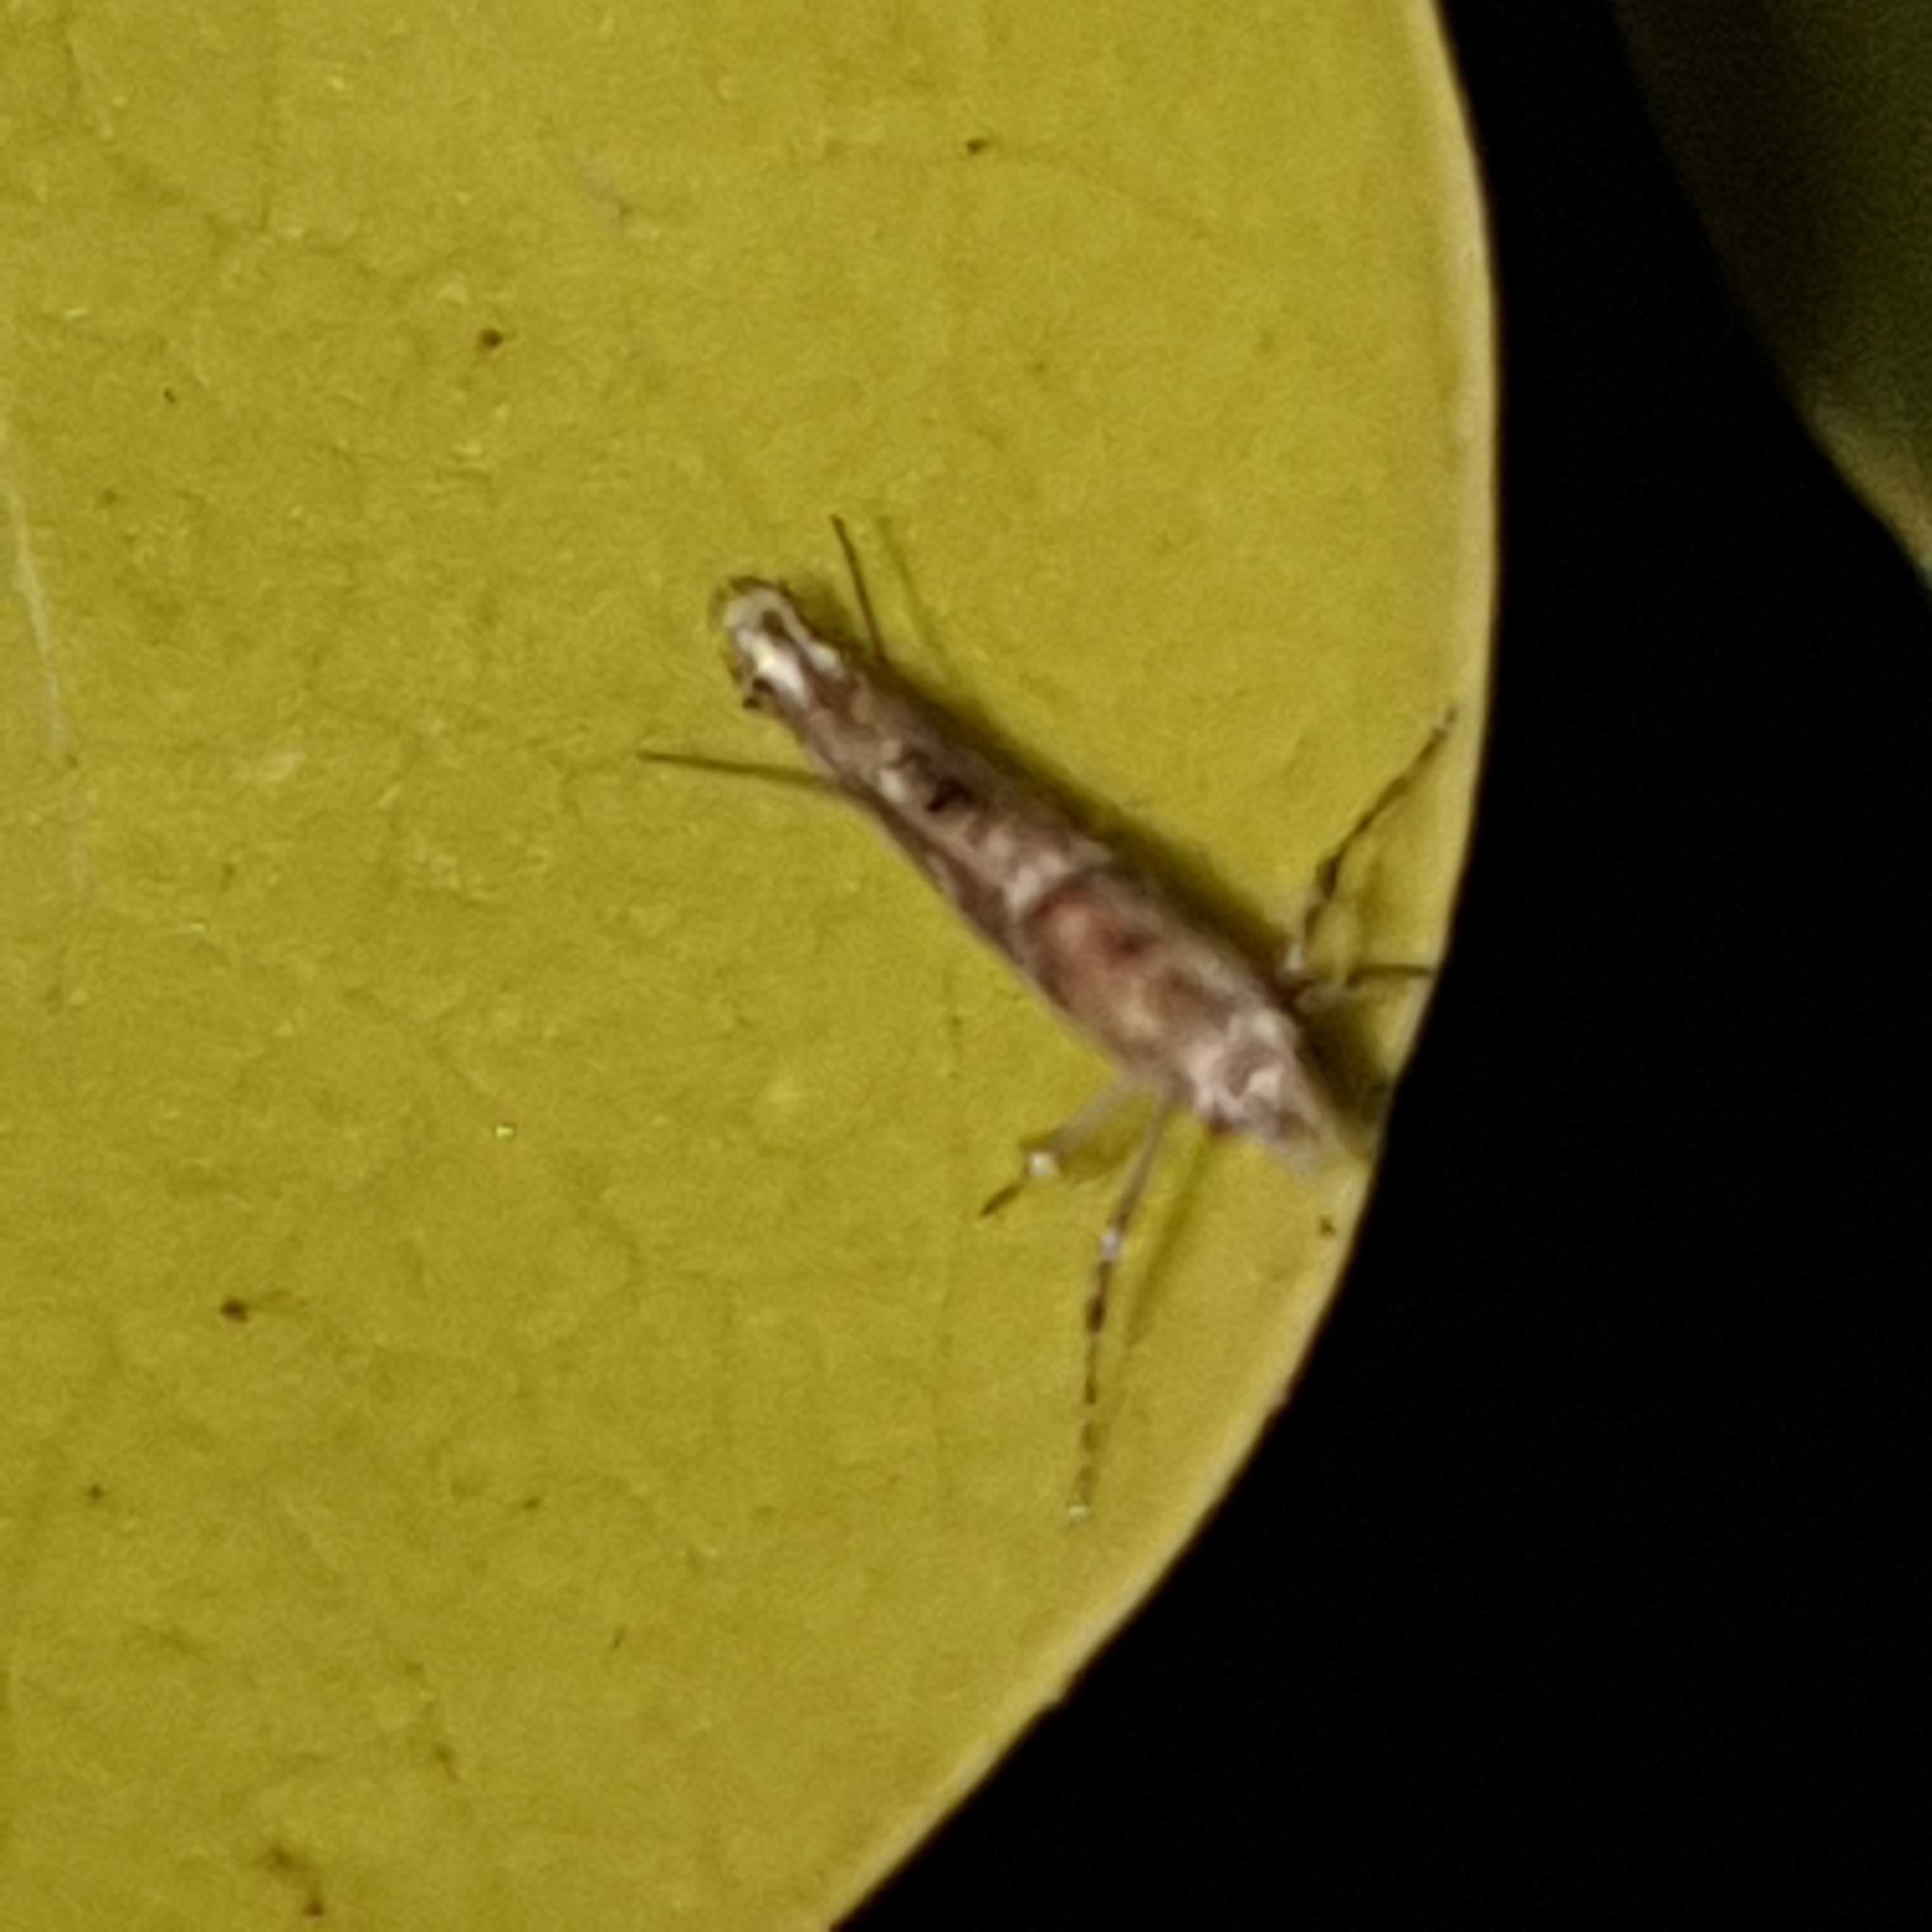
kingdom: Animalia
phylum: Arthropoda
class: Insecta
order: Lepidoptera
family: Gracillariidae
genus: Acrocercops
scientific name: Acrocercops brongniardella
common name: Brown oak slender
